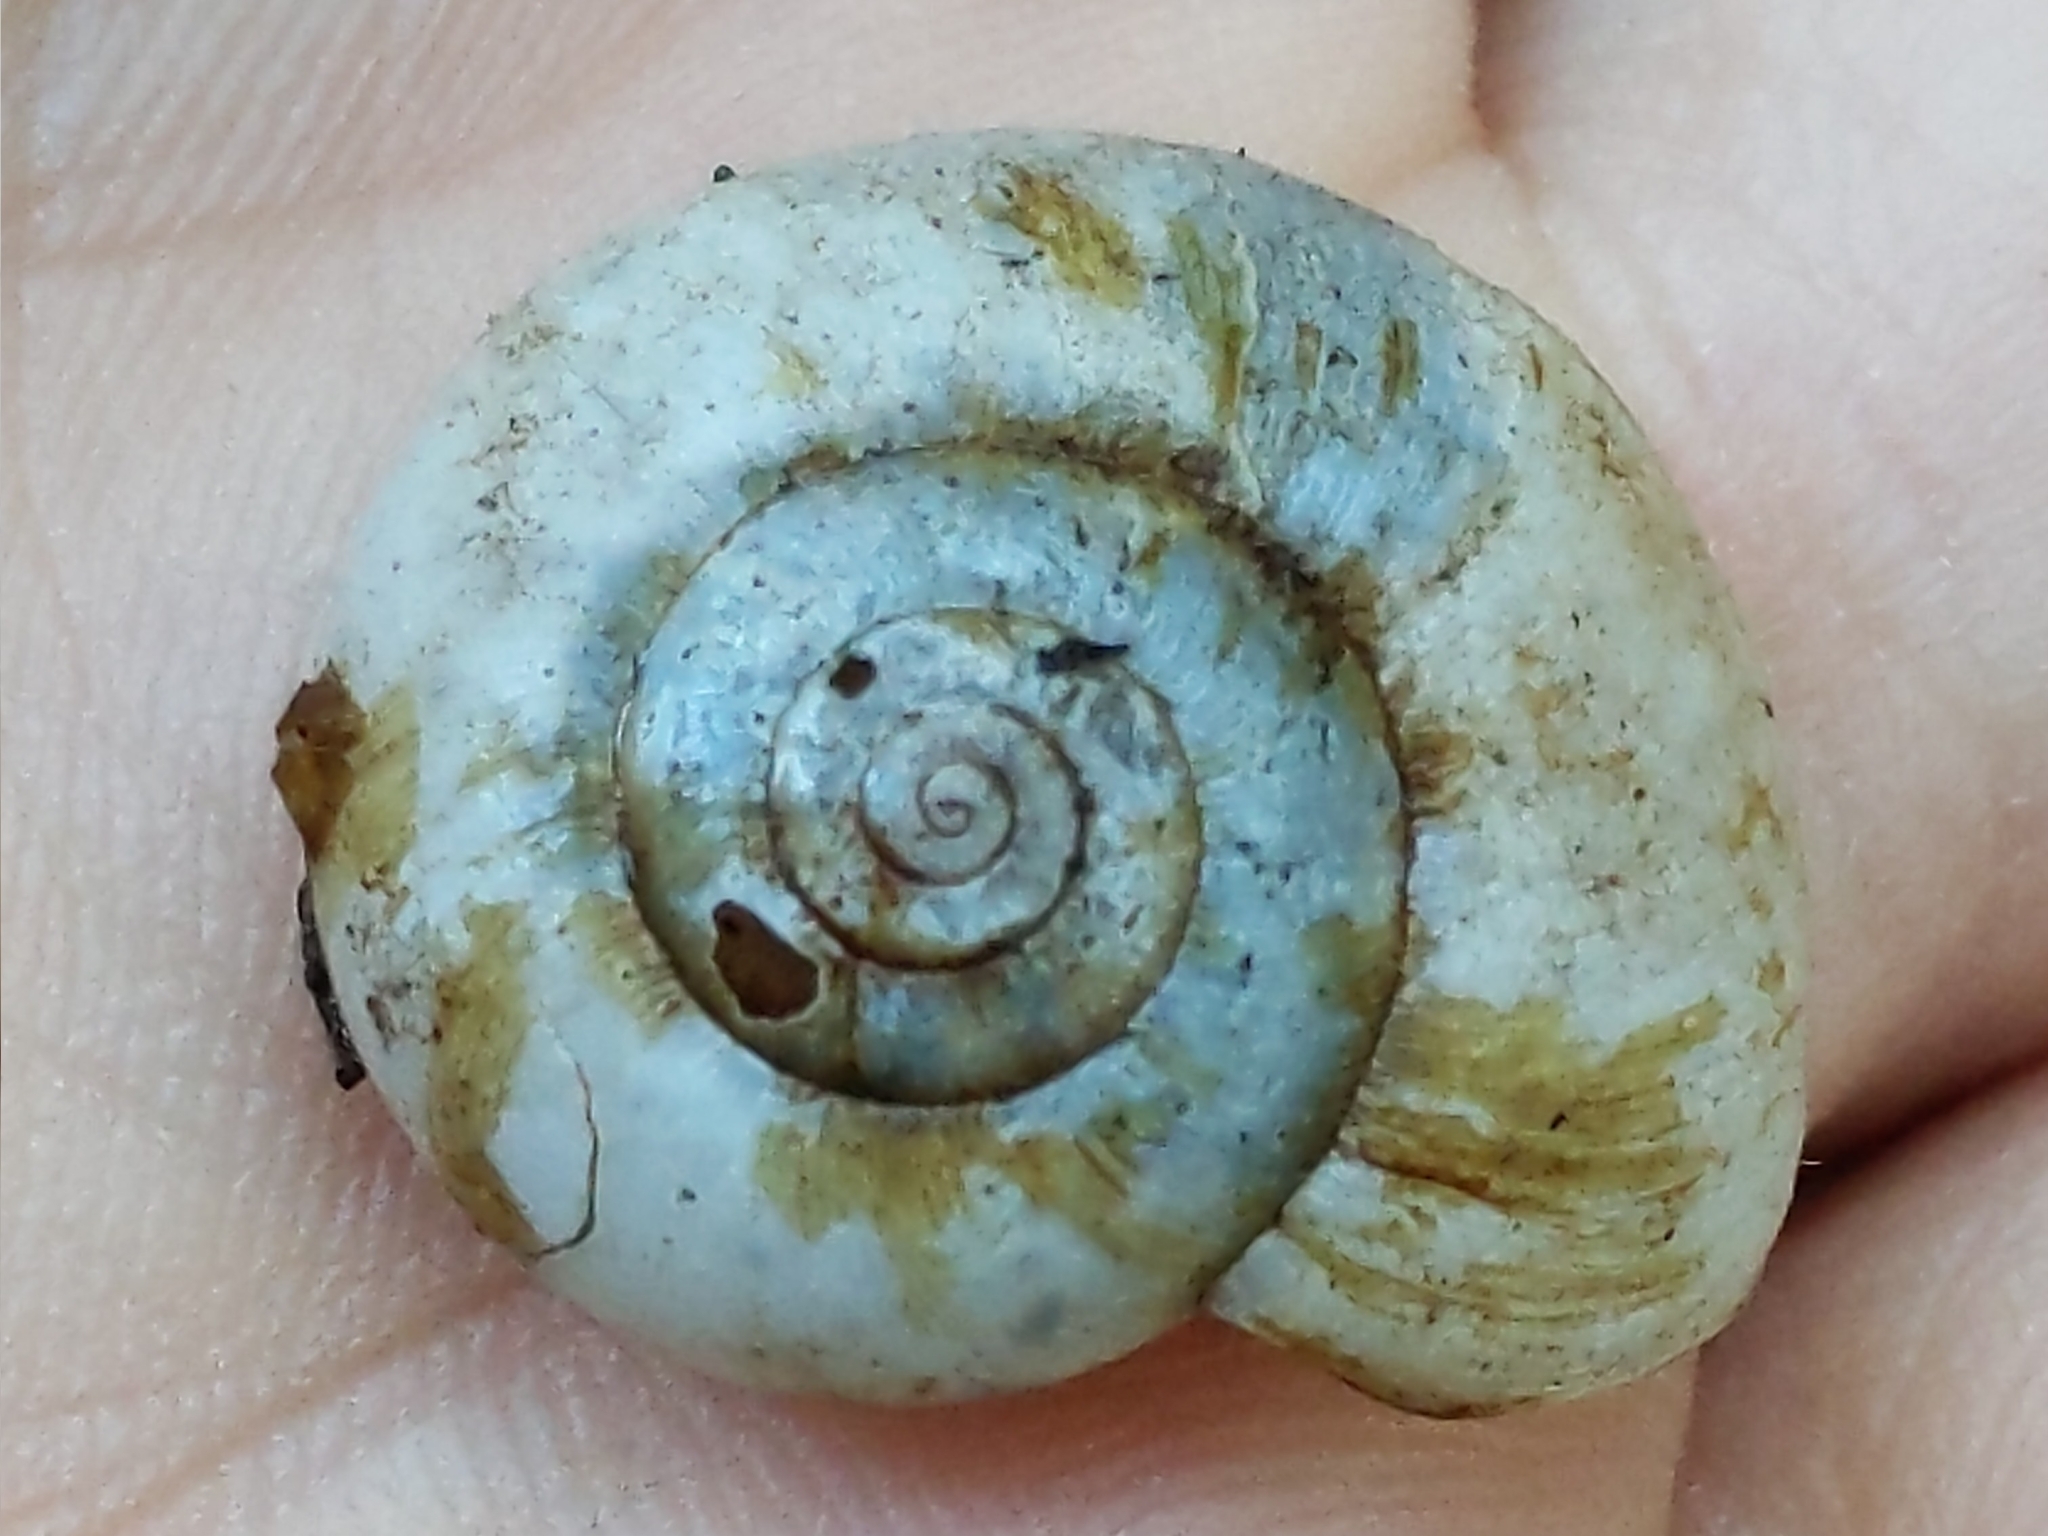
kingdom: Animalia
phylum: Mollusca
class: Gastropoda
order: Stylommatophora
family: Haplotrematidae
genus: Haplotrema
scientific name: Haplotrema minimum
